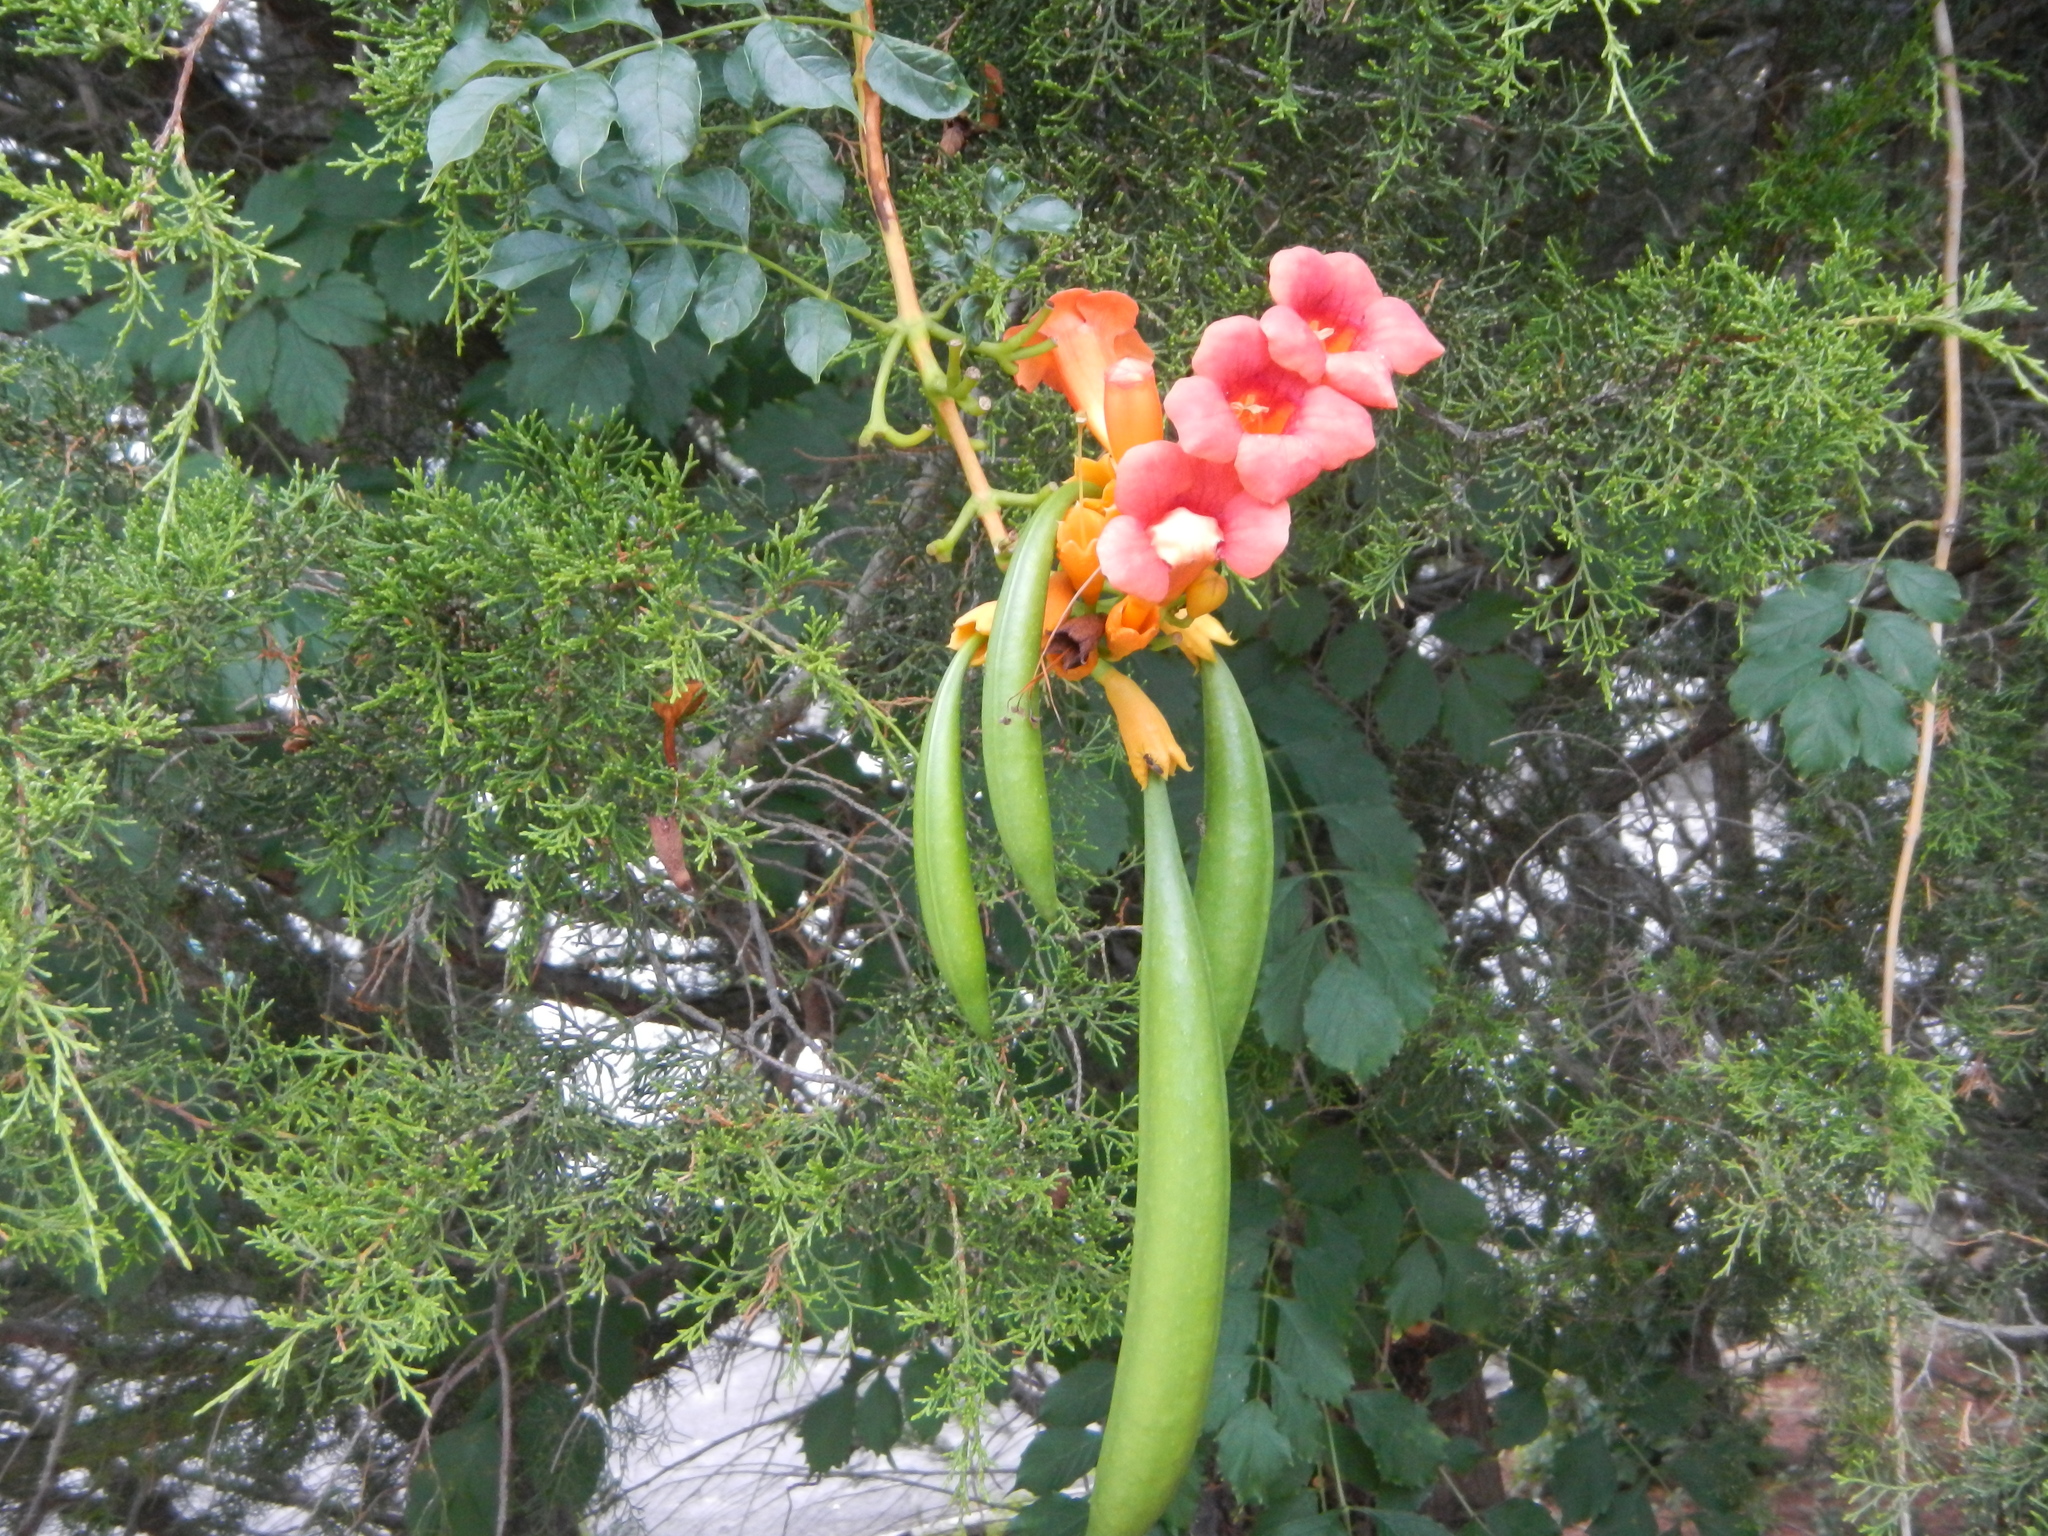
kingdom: Plantae
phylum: Tracheophyta
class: Magnoliopsida
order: Lamiales
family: Bignoniaceae
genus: Campsis
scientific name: Campsis radicans
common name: Trumpet-creeper
